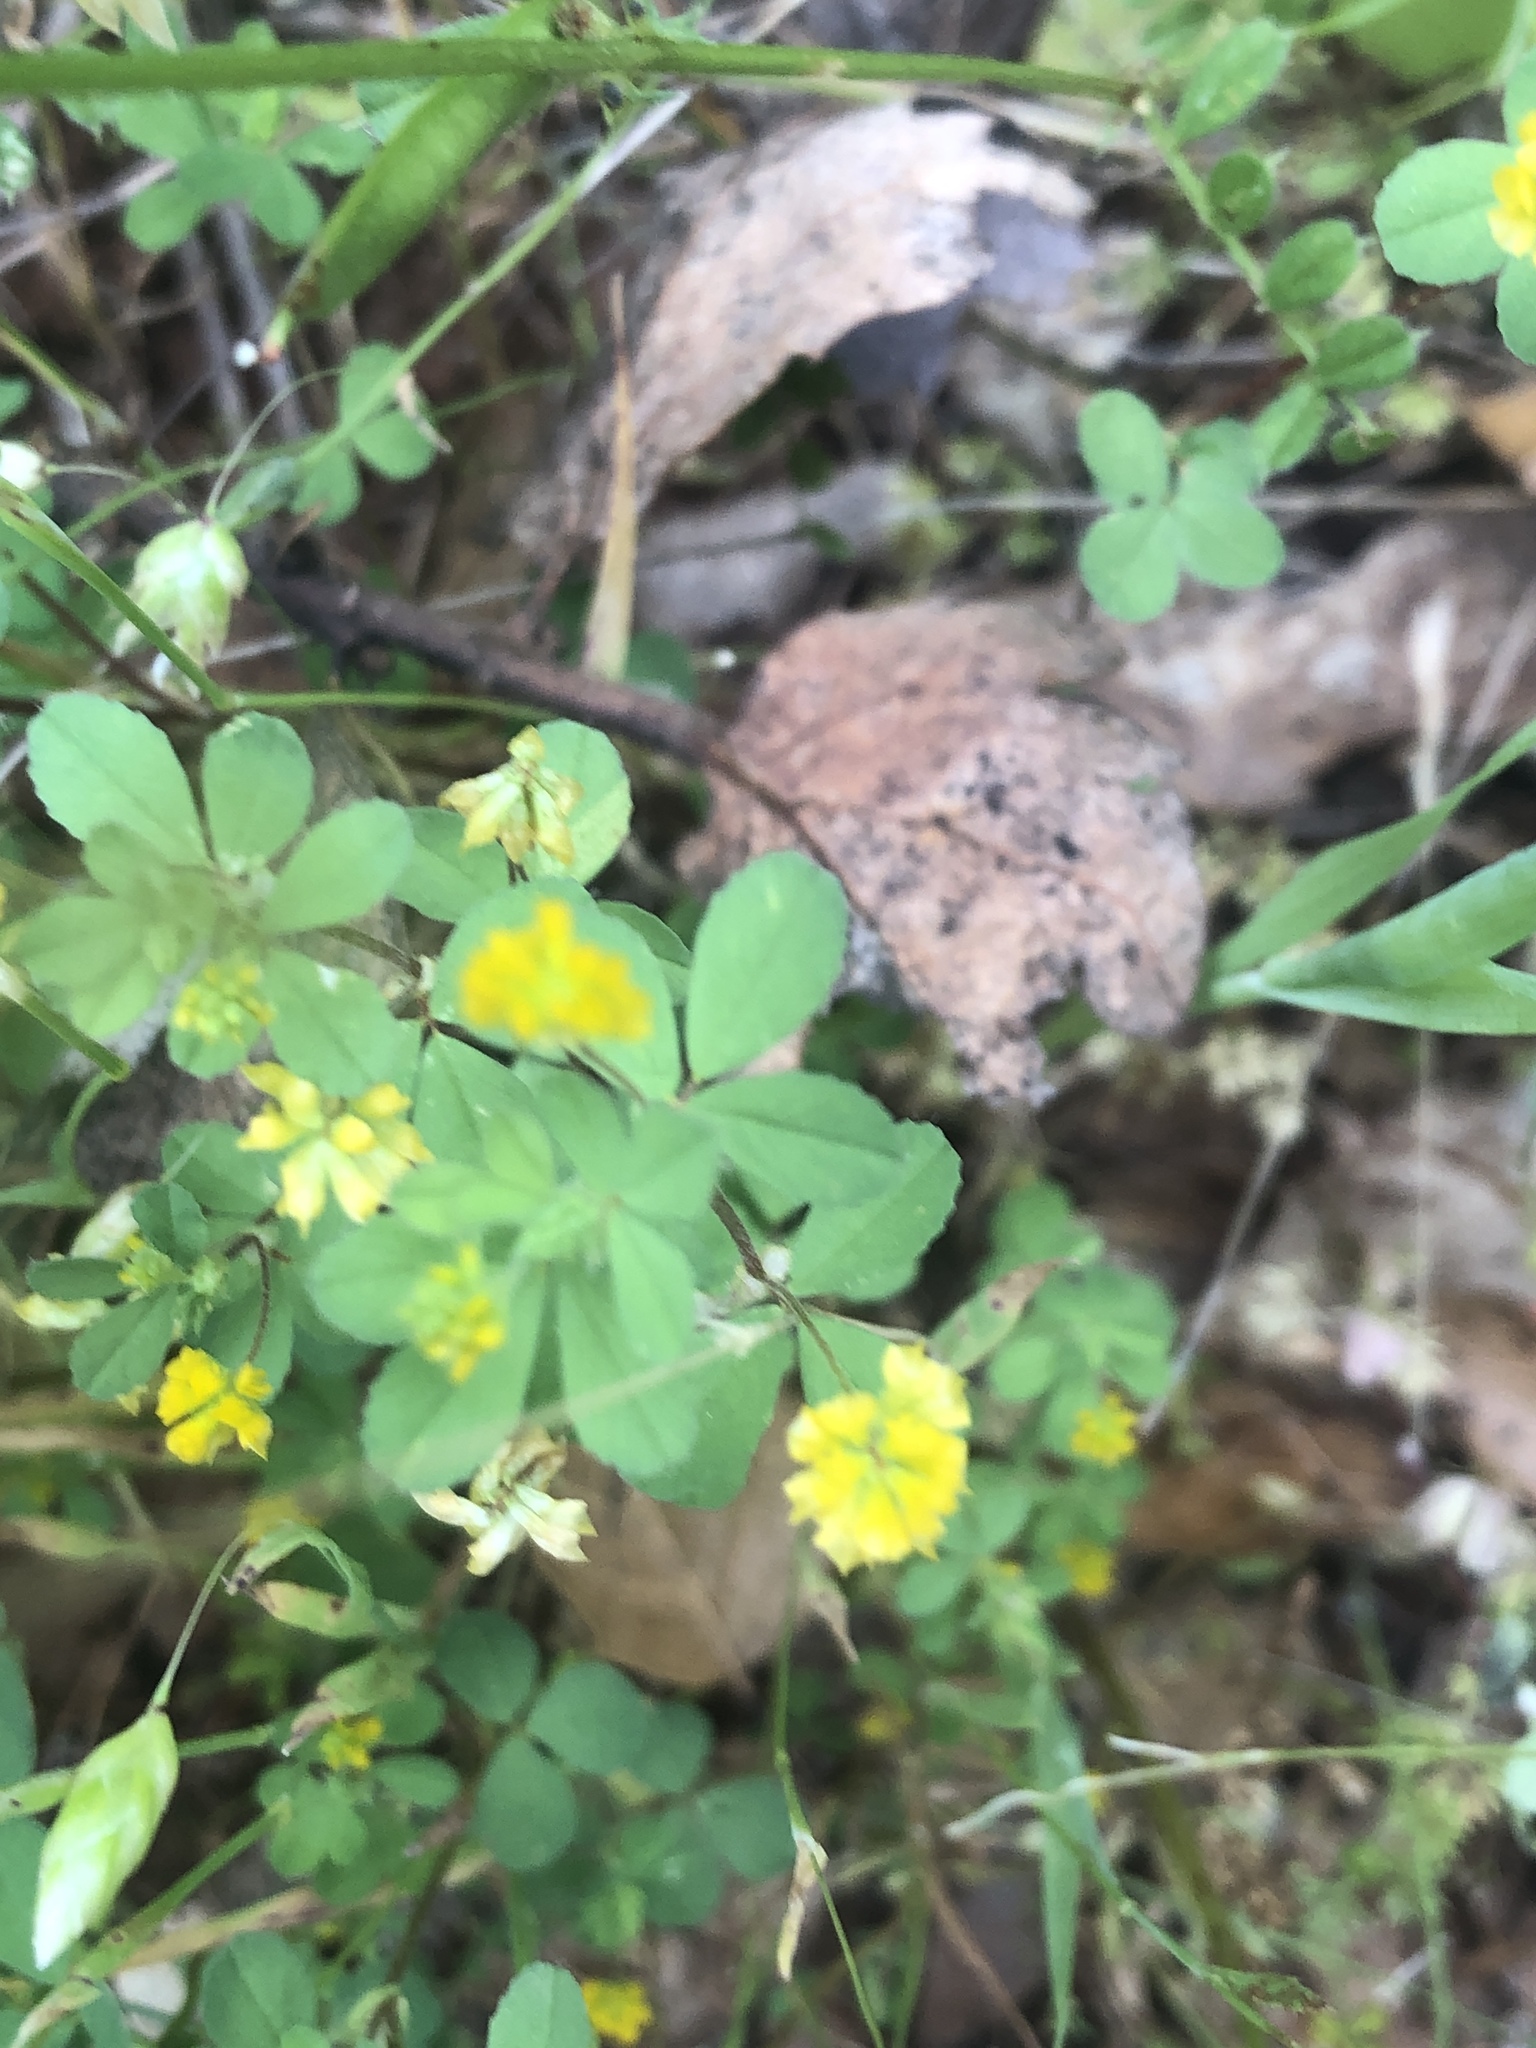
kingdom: Plantae
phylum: Tracheophyta
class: Magnoliopsida
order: Fabales
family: Fabaceae
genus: Trifolium
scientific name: Trifolium dubium
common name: Suckling clover
